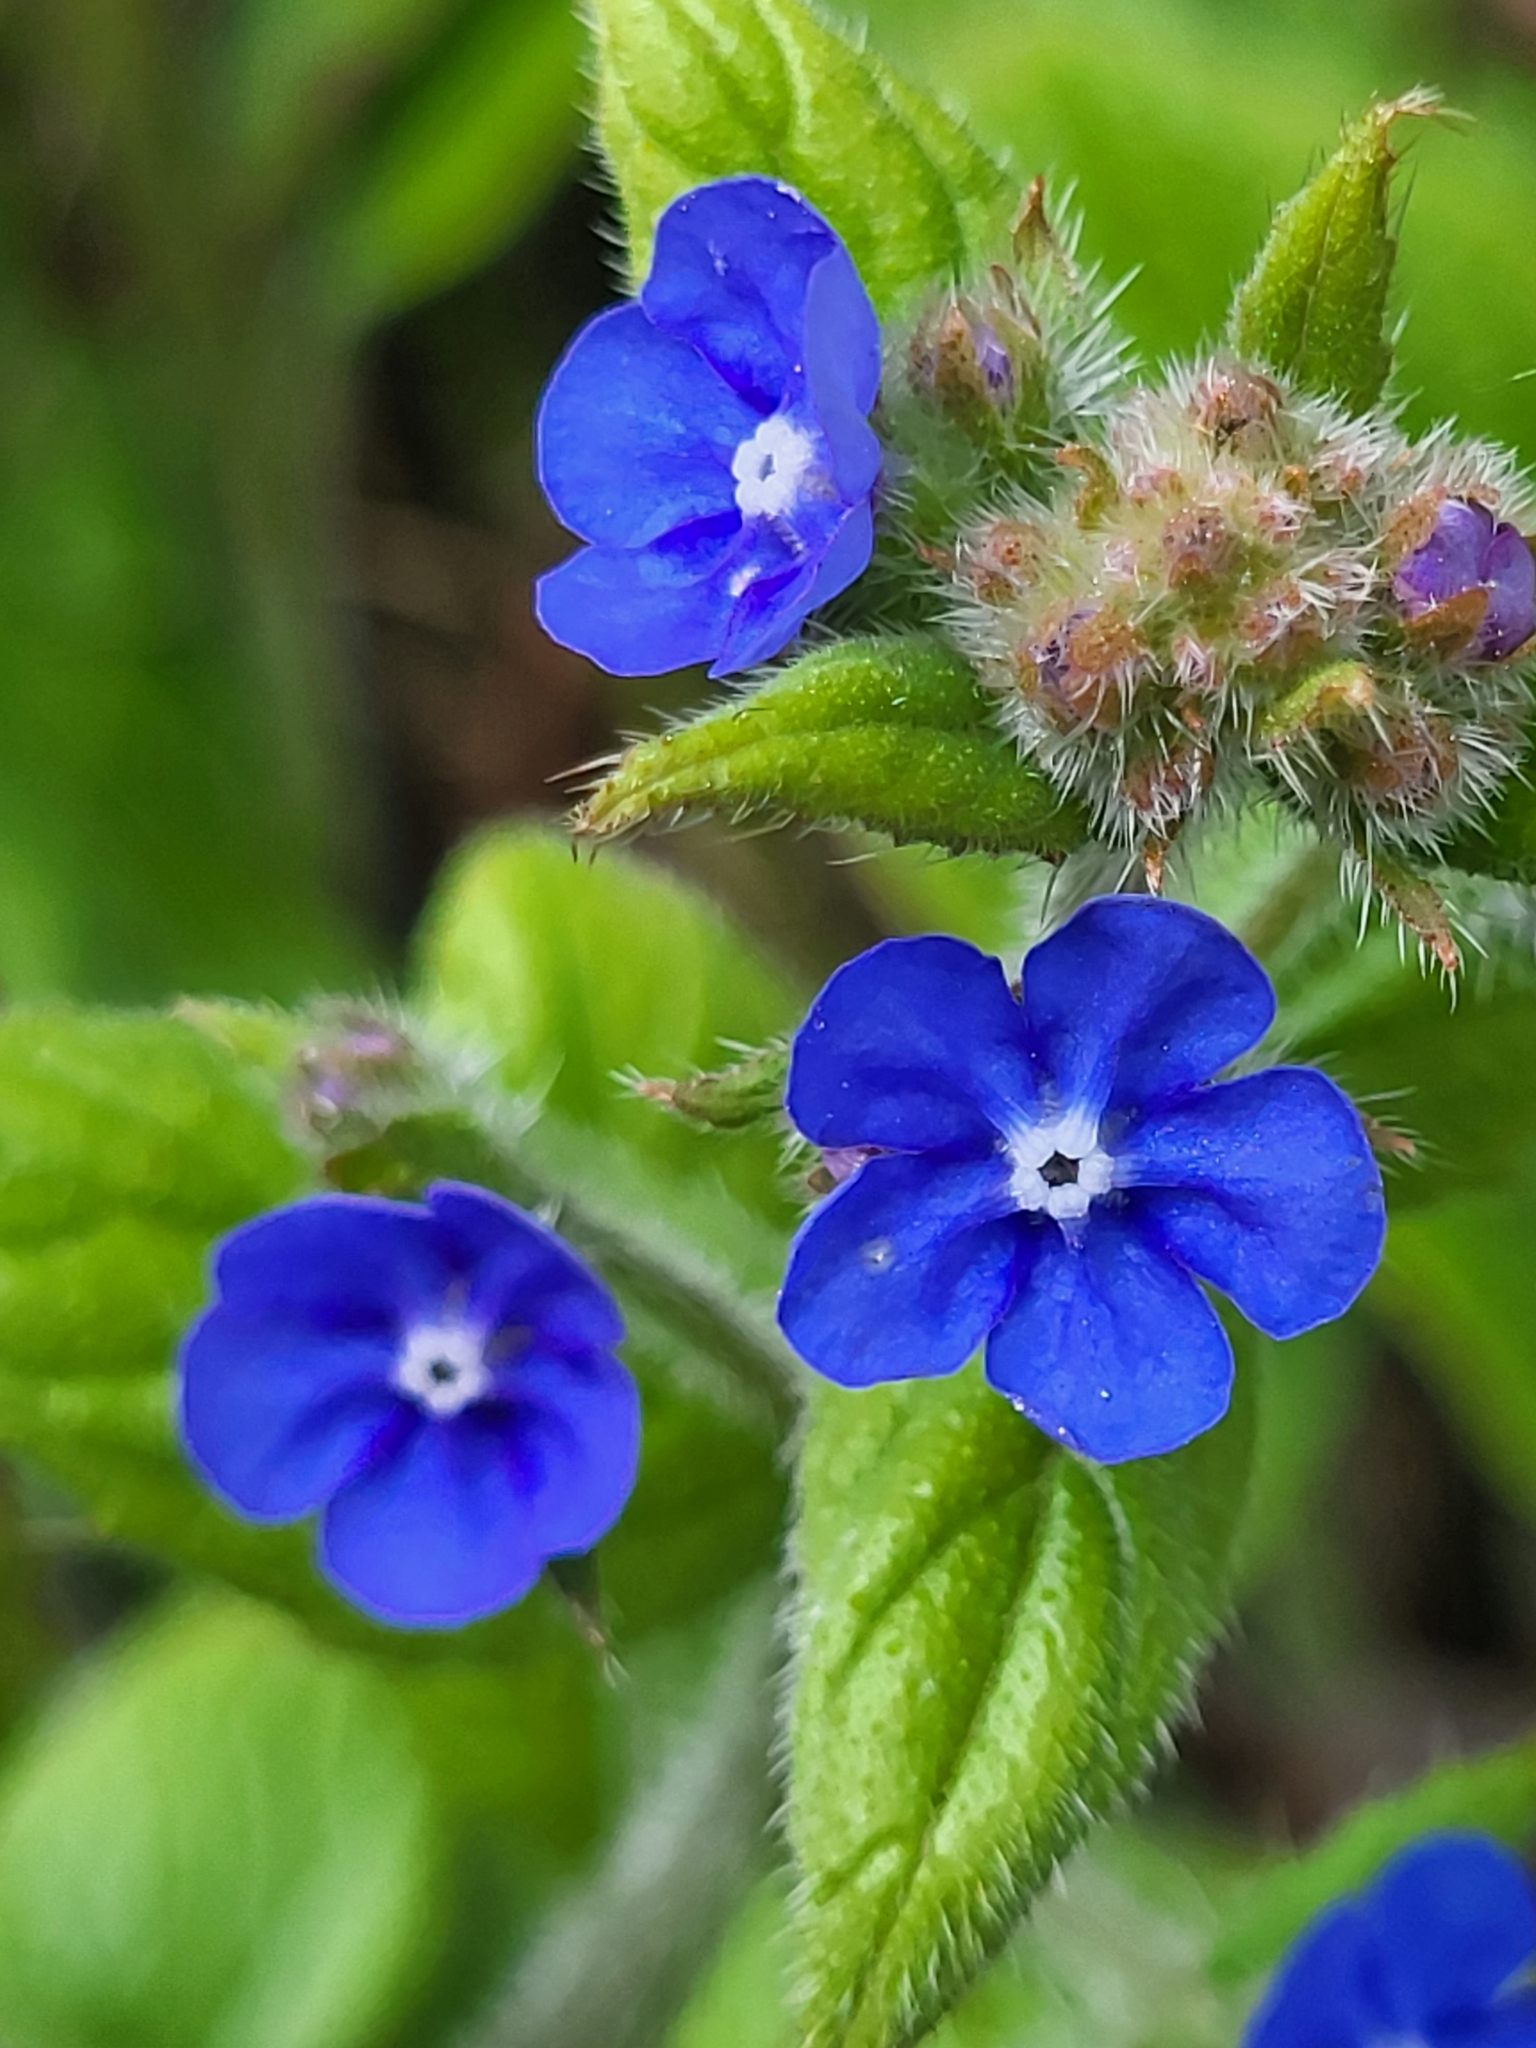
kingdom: Plantae
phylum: Tracheophyta
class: Magnoliopsida
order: Boraginales
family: Boraginaceae
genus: Pentaglottis
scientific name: Pentaglottis sempervirens
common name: Green alkanet
